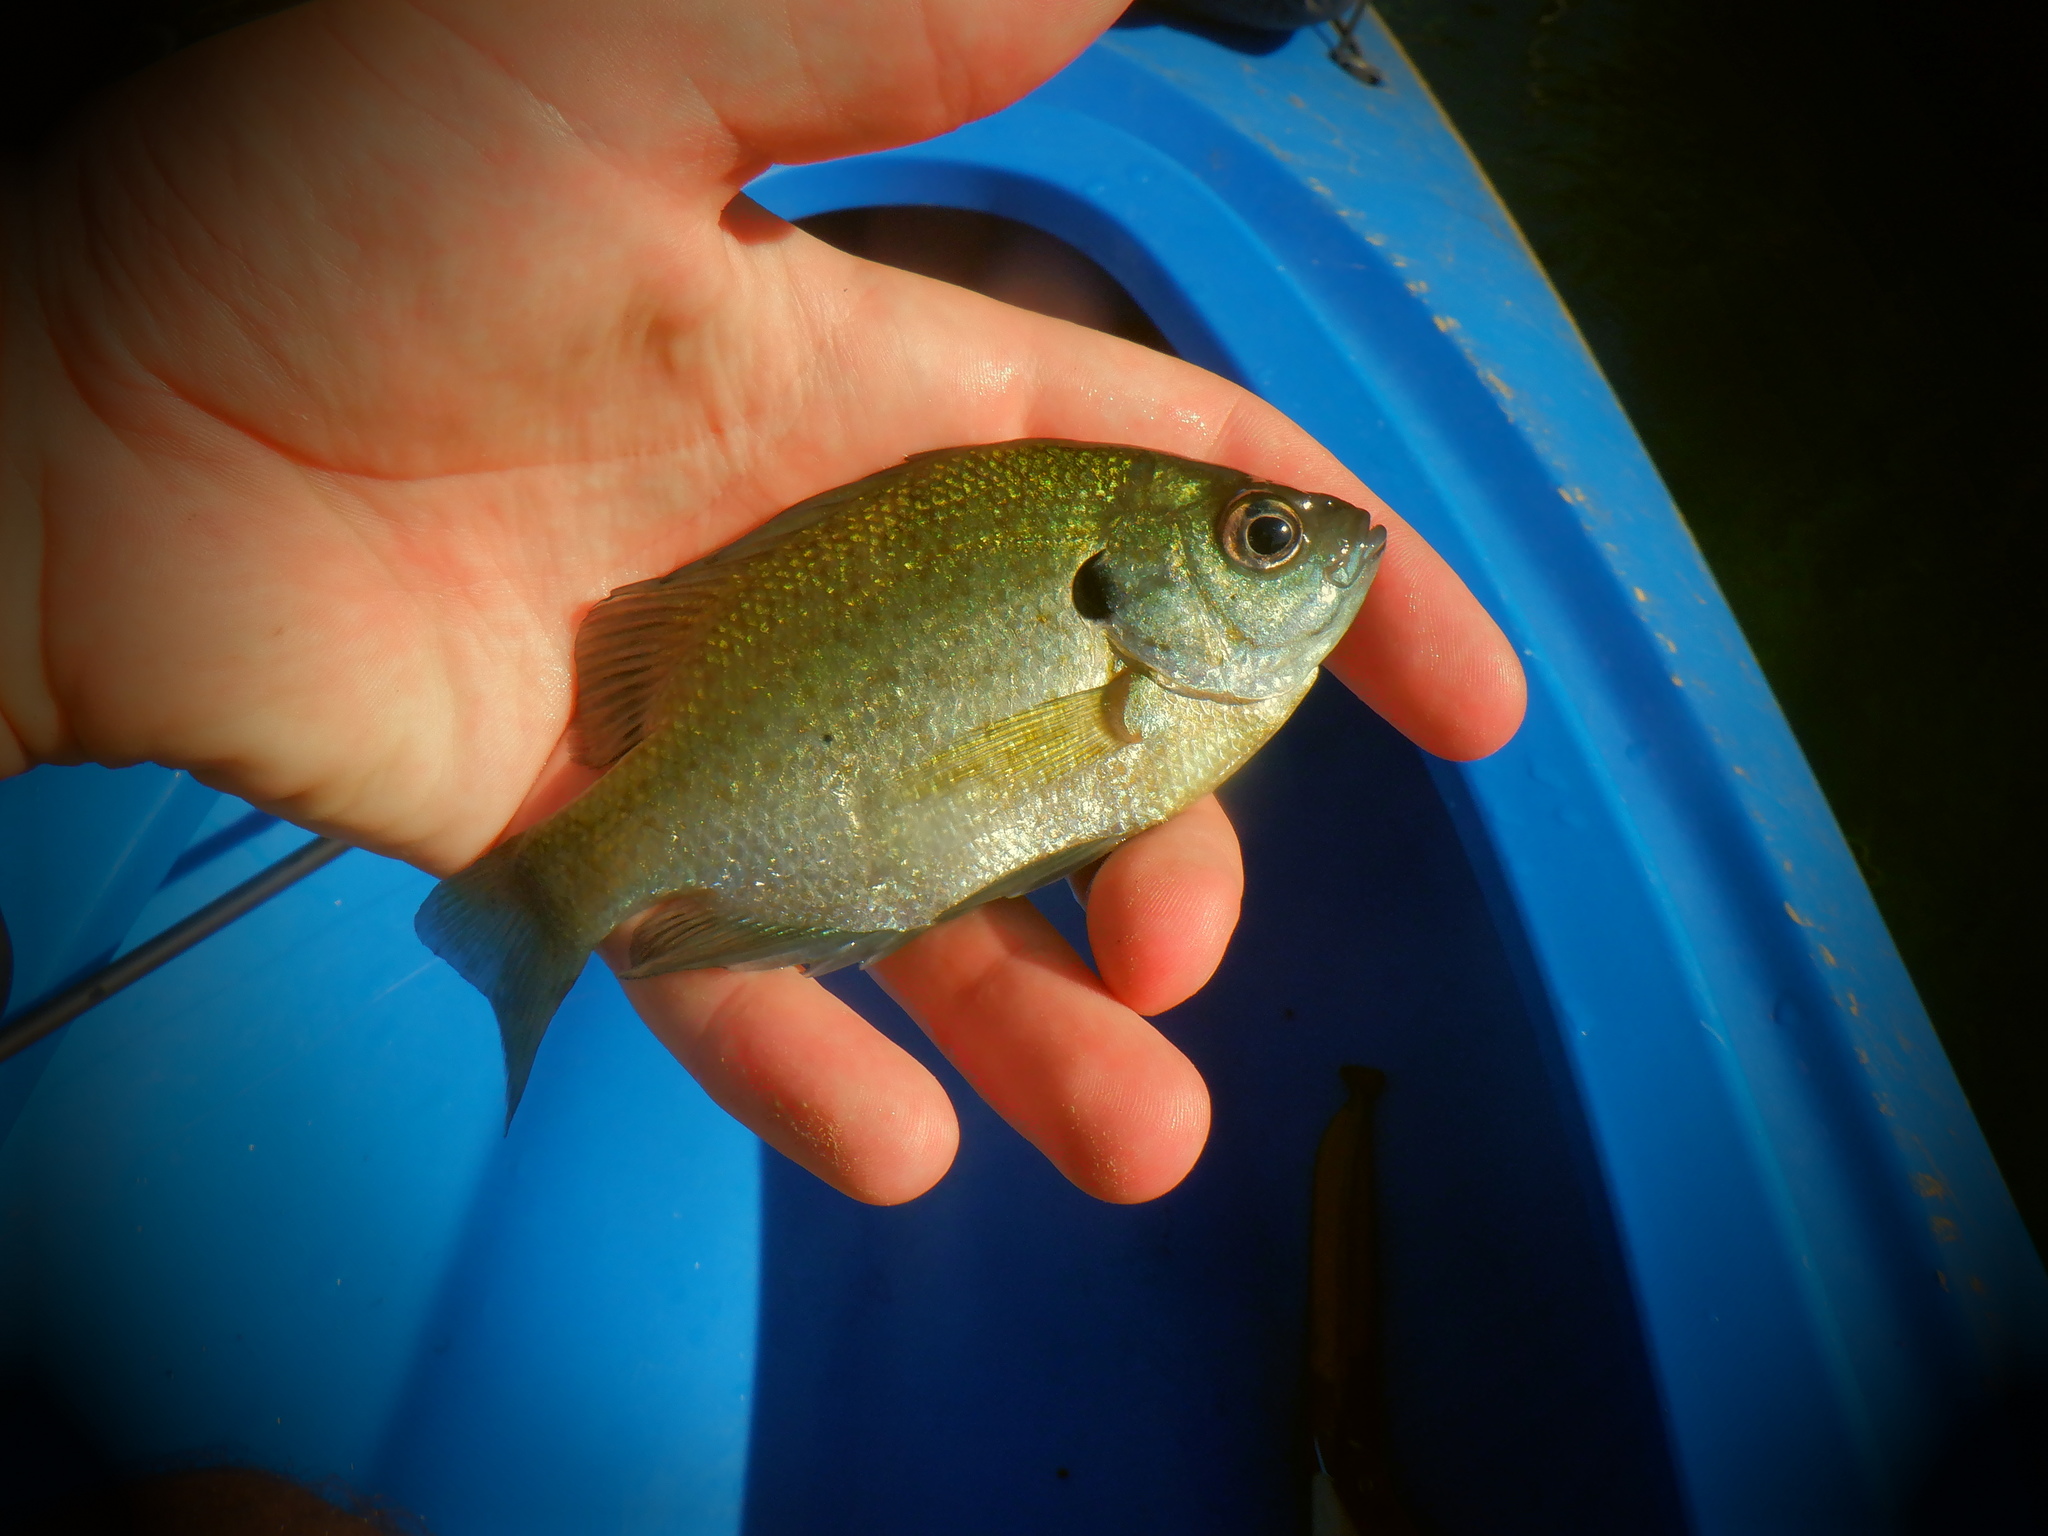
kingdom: Animalia
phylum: Chordata
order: Perciformes
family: Centrarchidae
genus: Lepomis
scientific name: Lepomis macrochirus
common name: Bluegill
